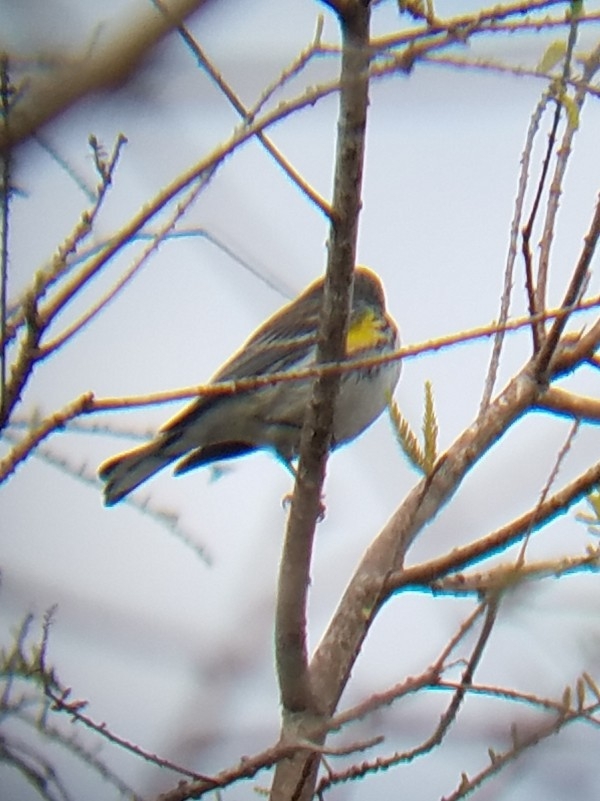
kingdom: Animalia
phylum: Chordata
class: Aves
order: Passeriformes
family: Parulidae
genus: Setophaga
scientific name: Setophaga coronata
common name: Myrtle warbler
